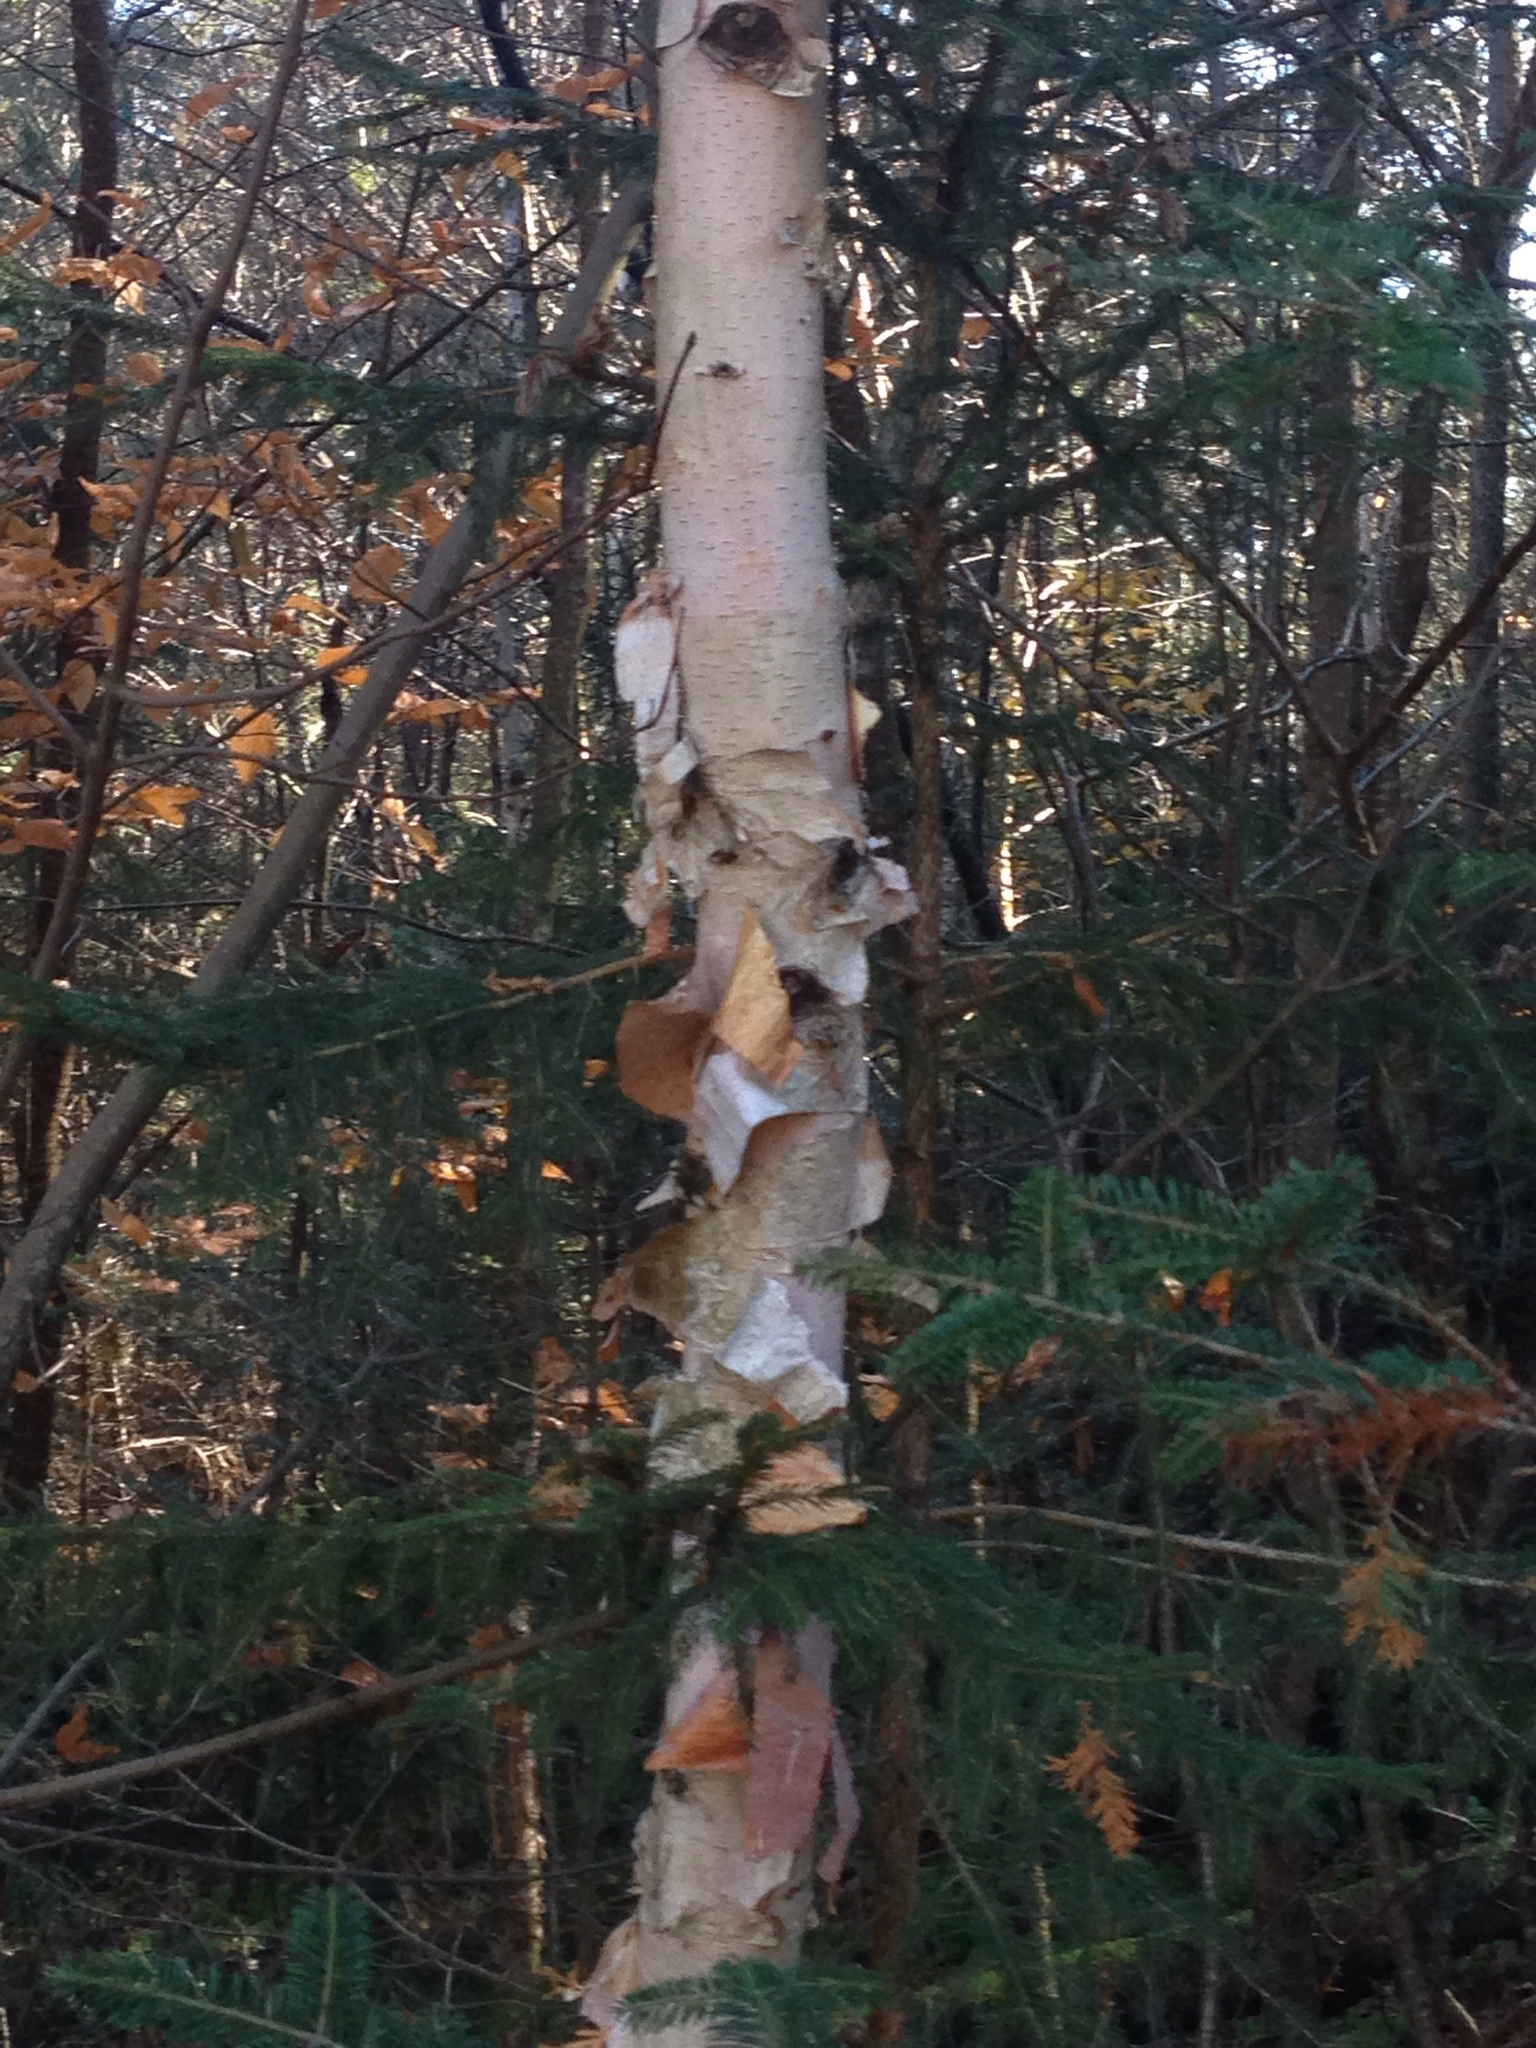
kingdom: Plantae
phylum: Tracheophyta
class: Magnoliopsida
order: Fagales
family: Betulaceae
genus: Betula
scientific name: Betula papyrifera
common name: Paper birch
